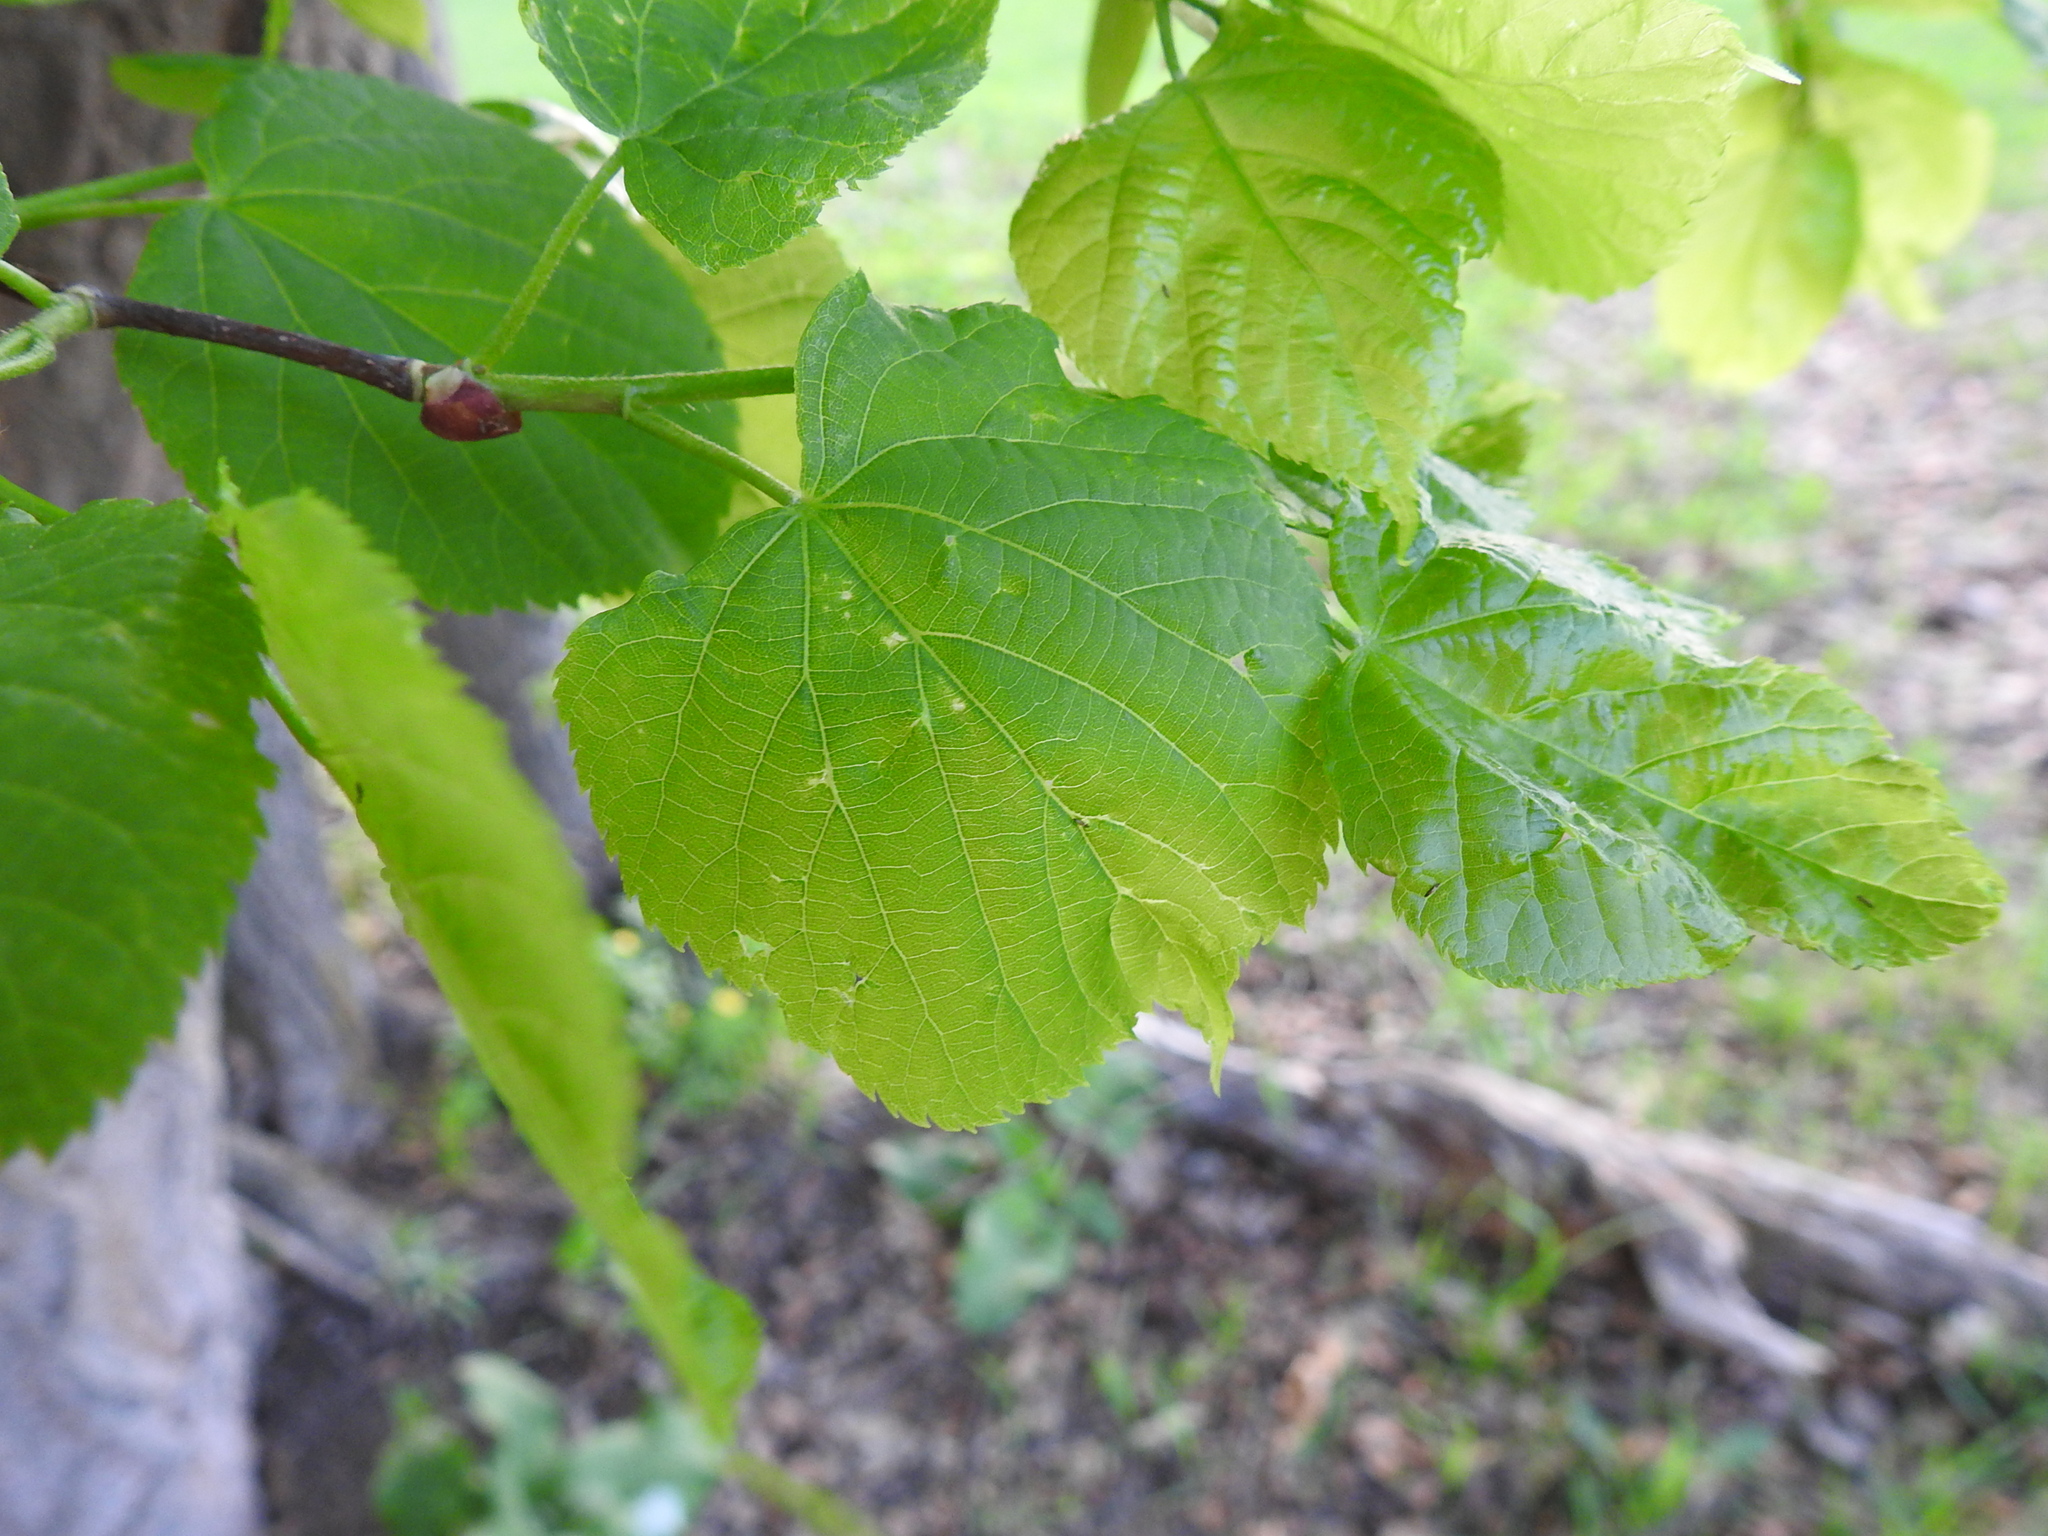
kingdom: Plantae
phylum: Tracheophyta
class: Magnoliopsida
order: Malvales
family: Malvaceae
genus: Tilia
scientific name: Tilia platyphyllos
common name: Large-leaved lime
